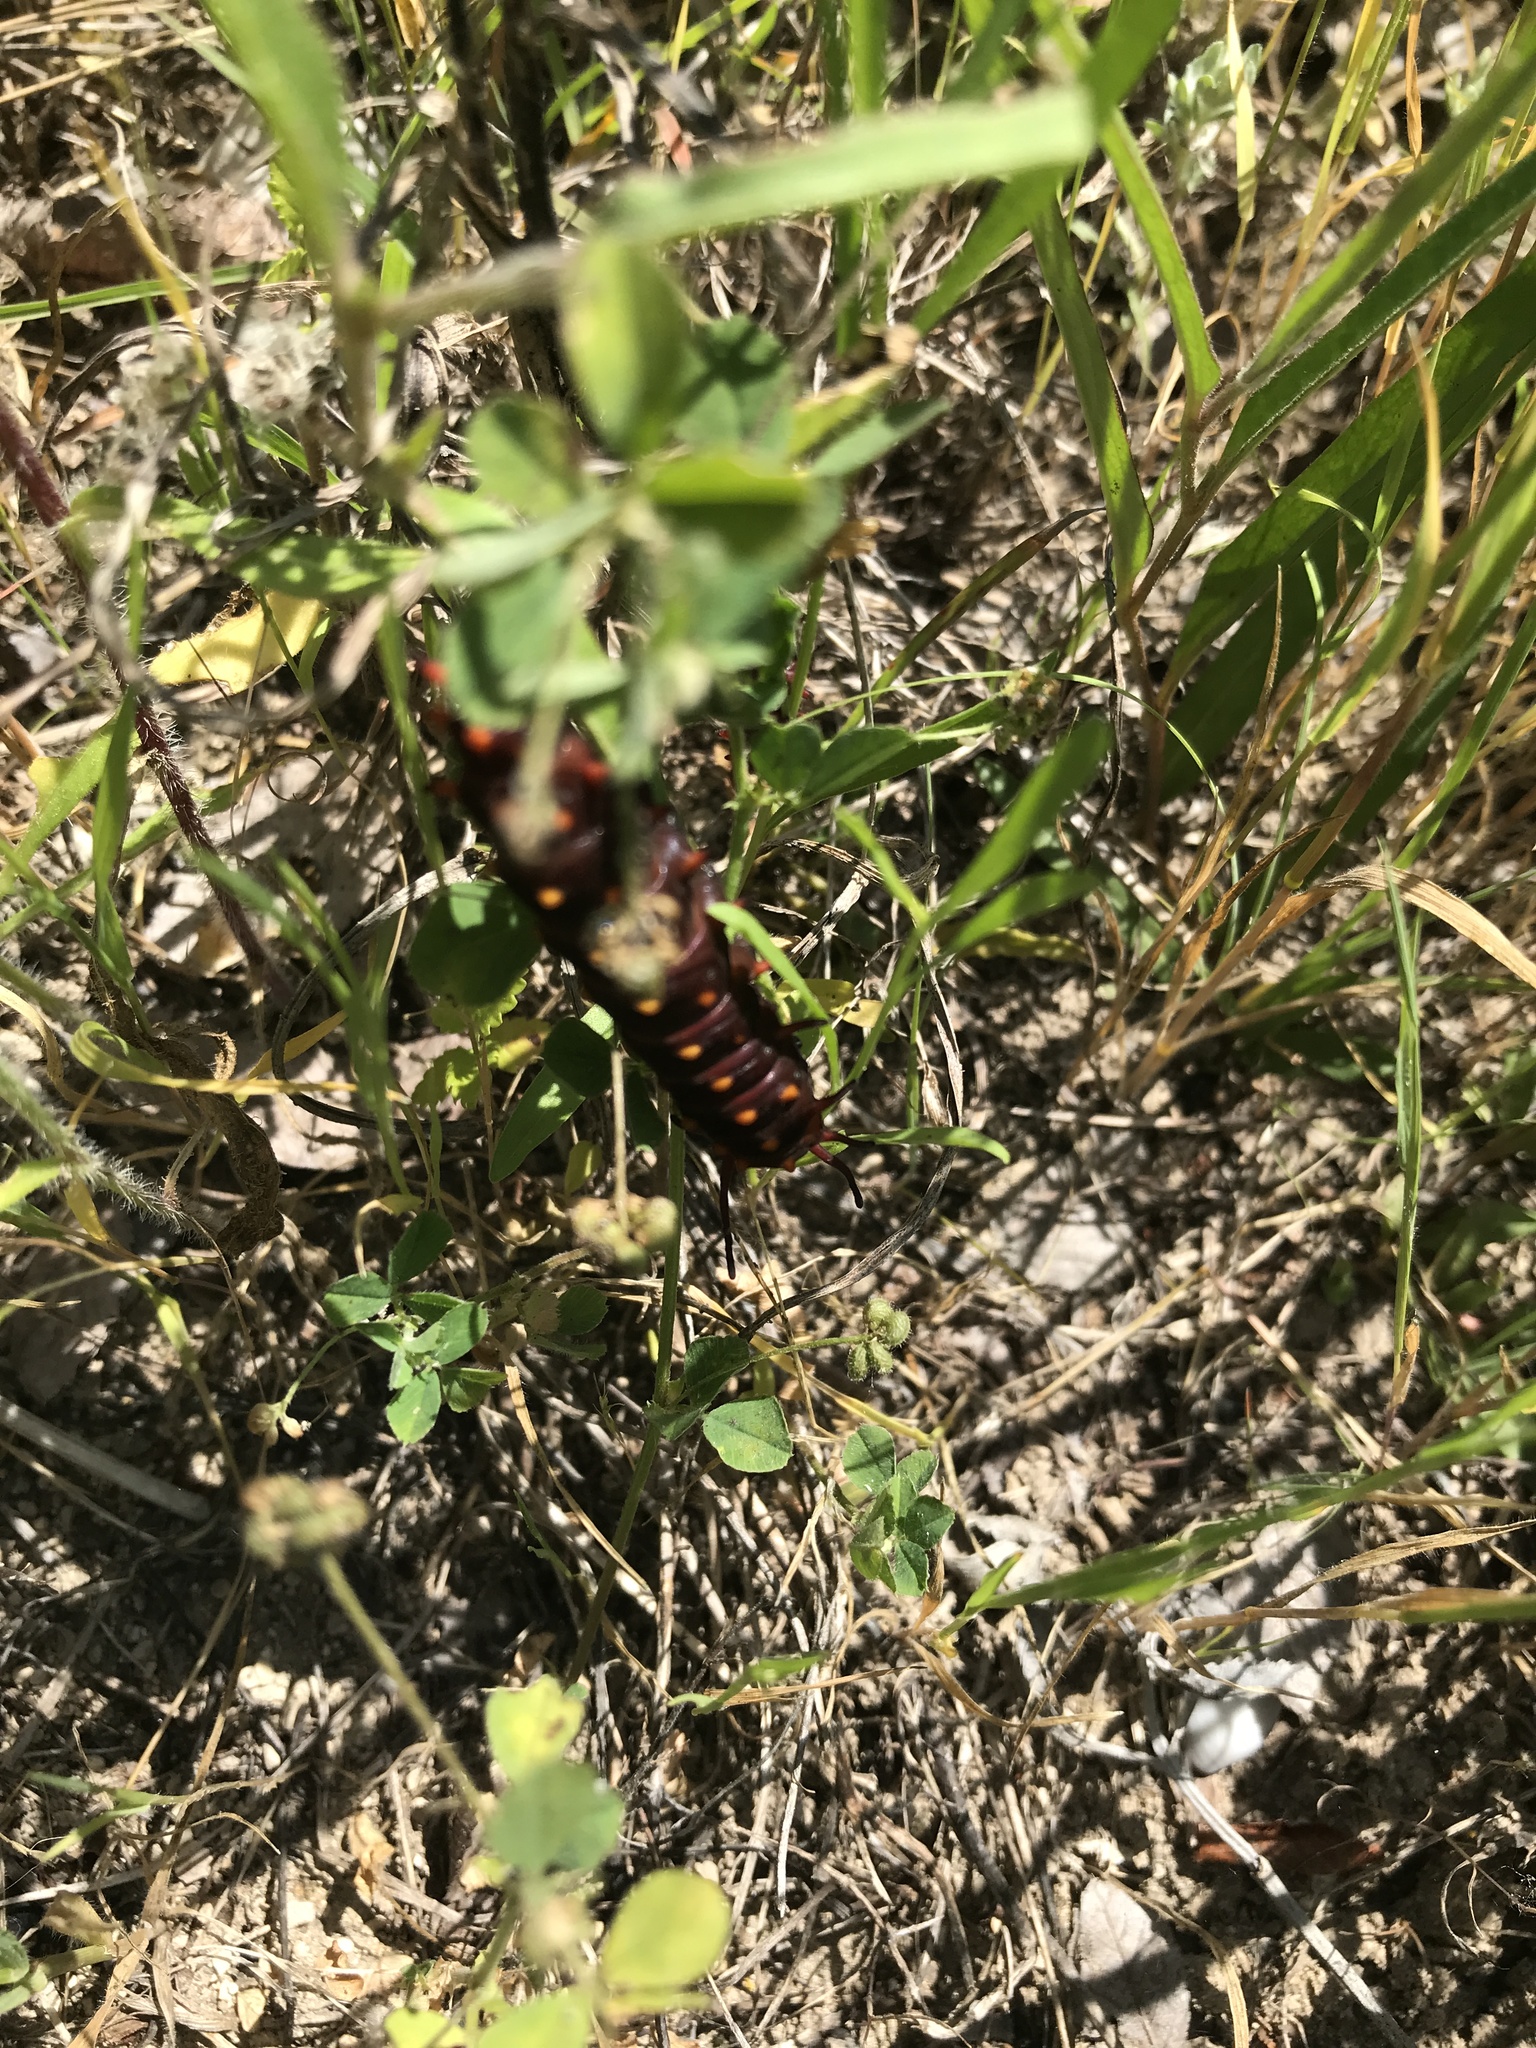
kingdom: Animalia
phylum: Arthropoda
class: Insecta
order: Lepidoptera
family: Papilionidae
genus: Battus
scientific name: Battus philenor
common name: Pipevine swallowtail
